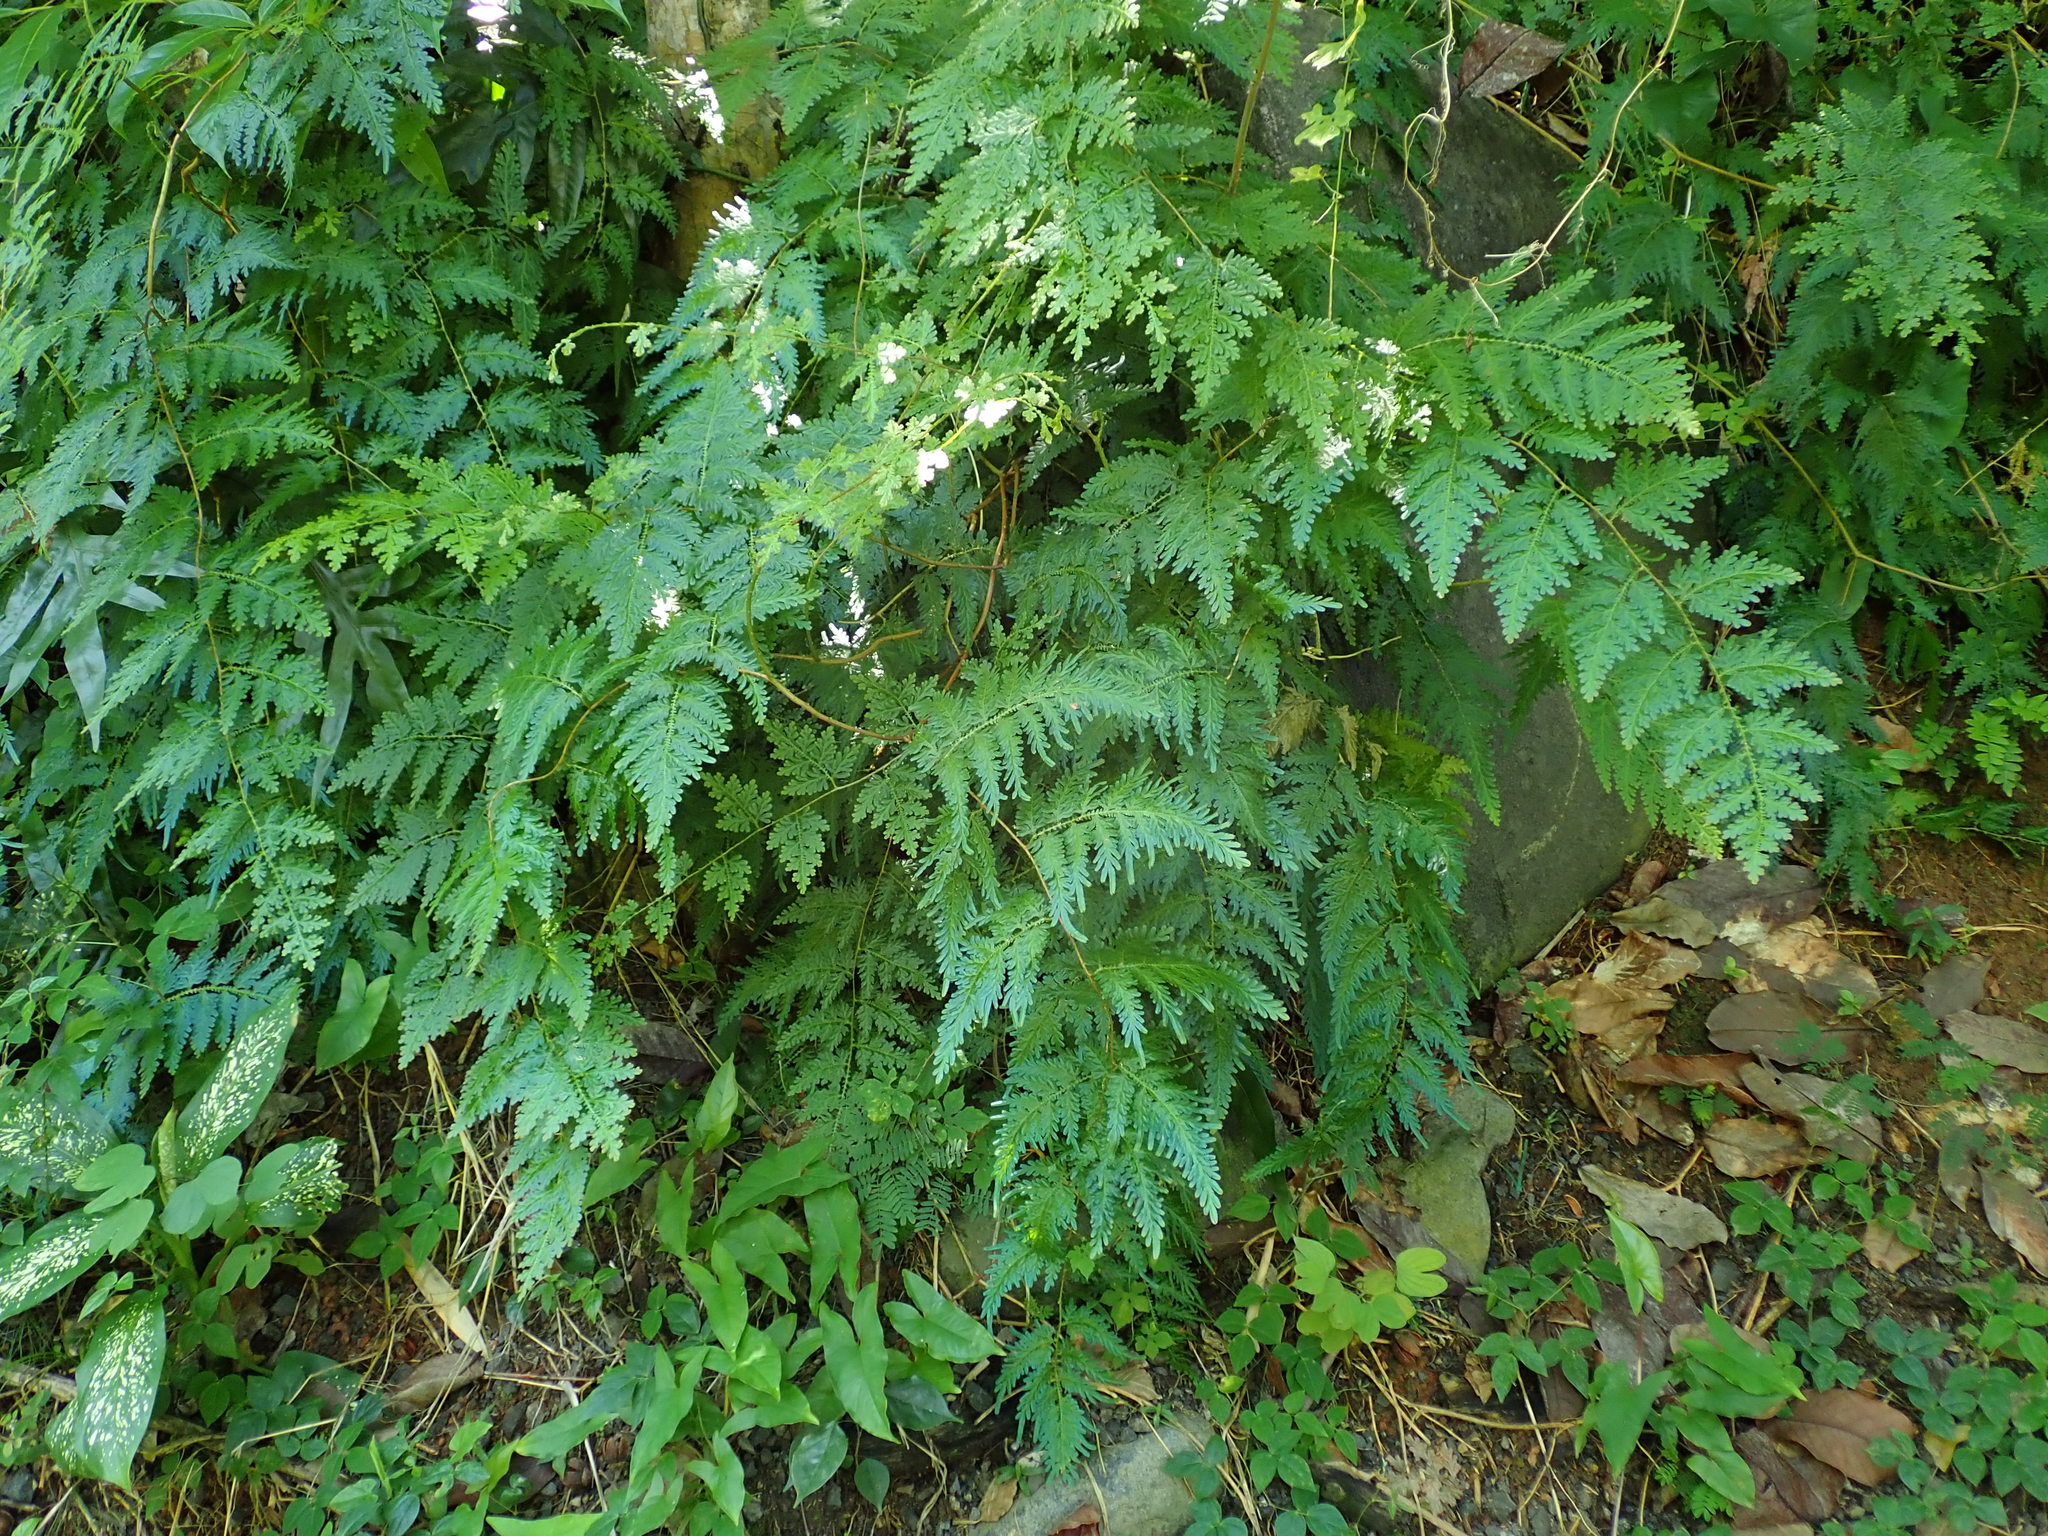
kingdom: Plantae
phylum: Tracheophyta
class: Lycopodiopsida
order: Selaginellales
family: Selaginellaceae
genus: Selaginella
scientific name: Selaginella willdenowii
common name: Willdenow's spikemoss
